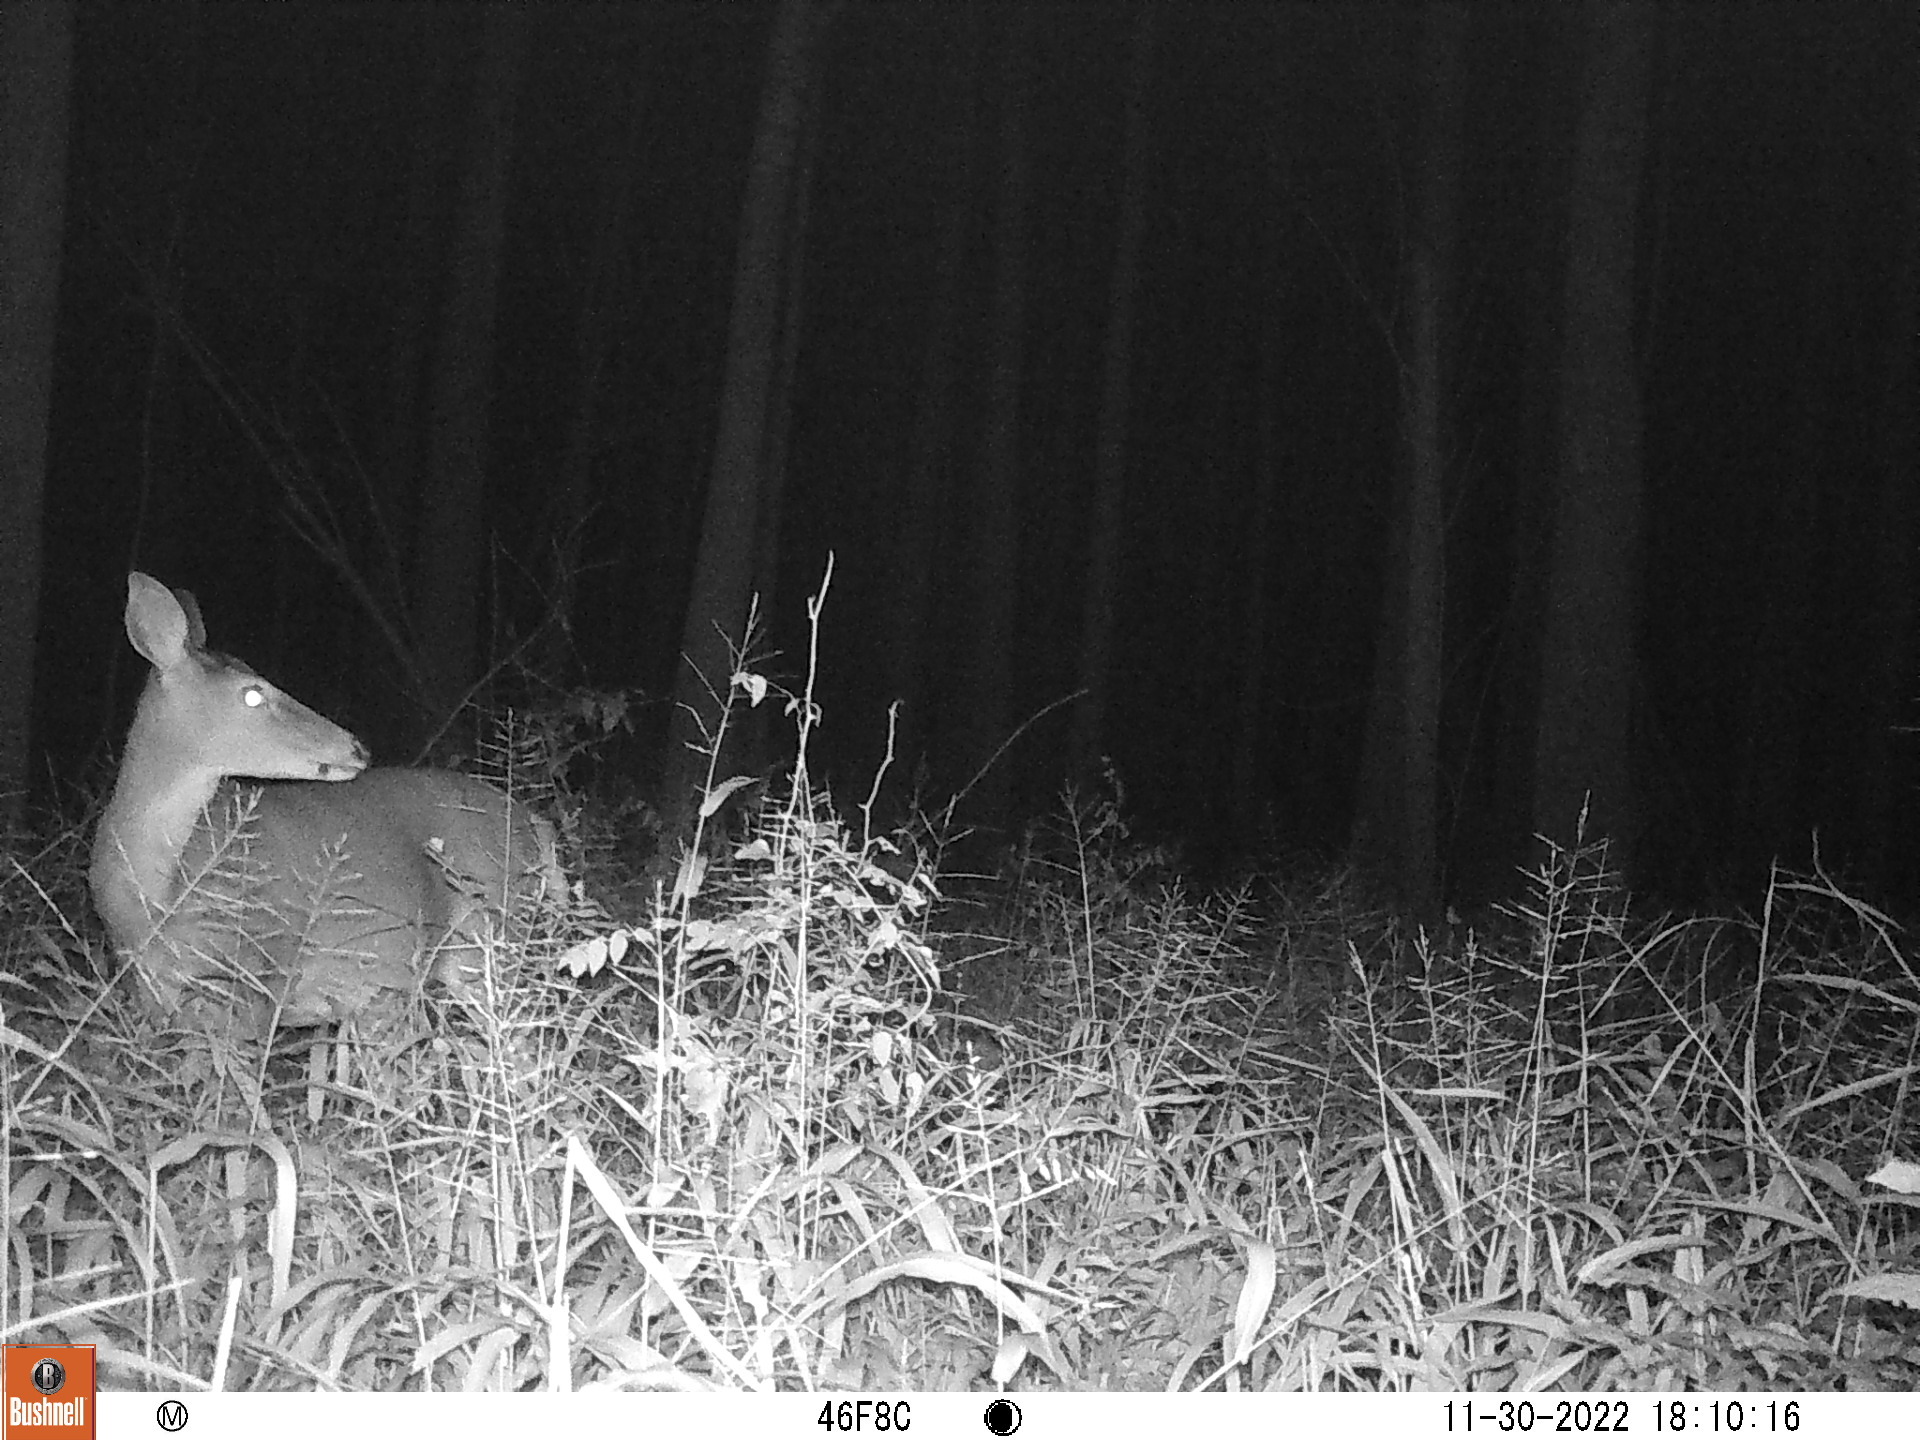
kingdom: Animalia
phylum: Chordata
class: Mammalia
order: Artiodactyla
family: Cervidae
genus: Odocoileus
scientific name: Odocoileus virginianus
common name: White-tailed deer
